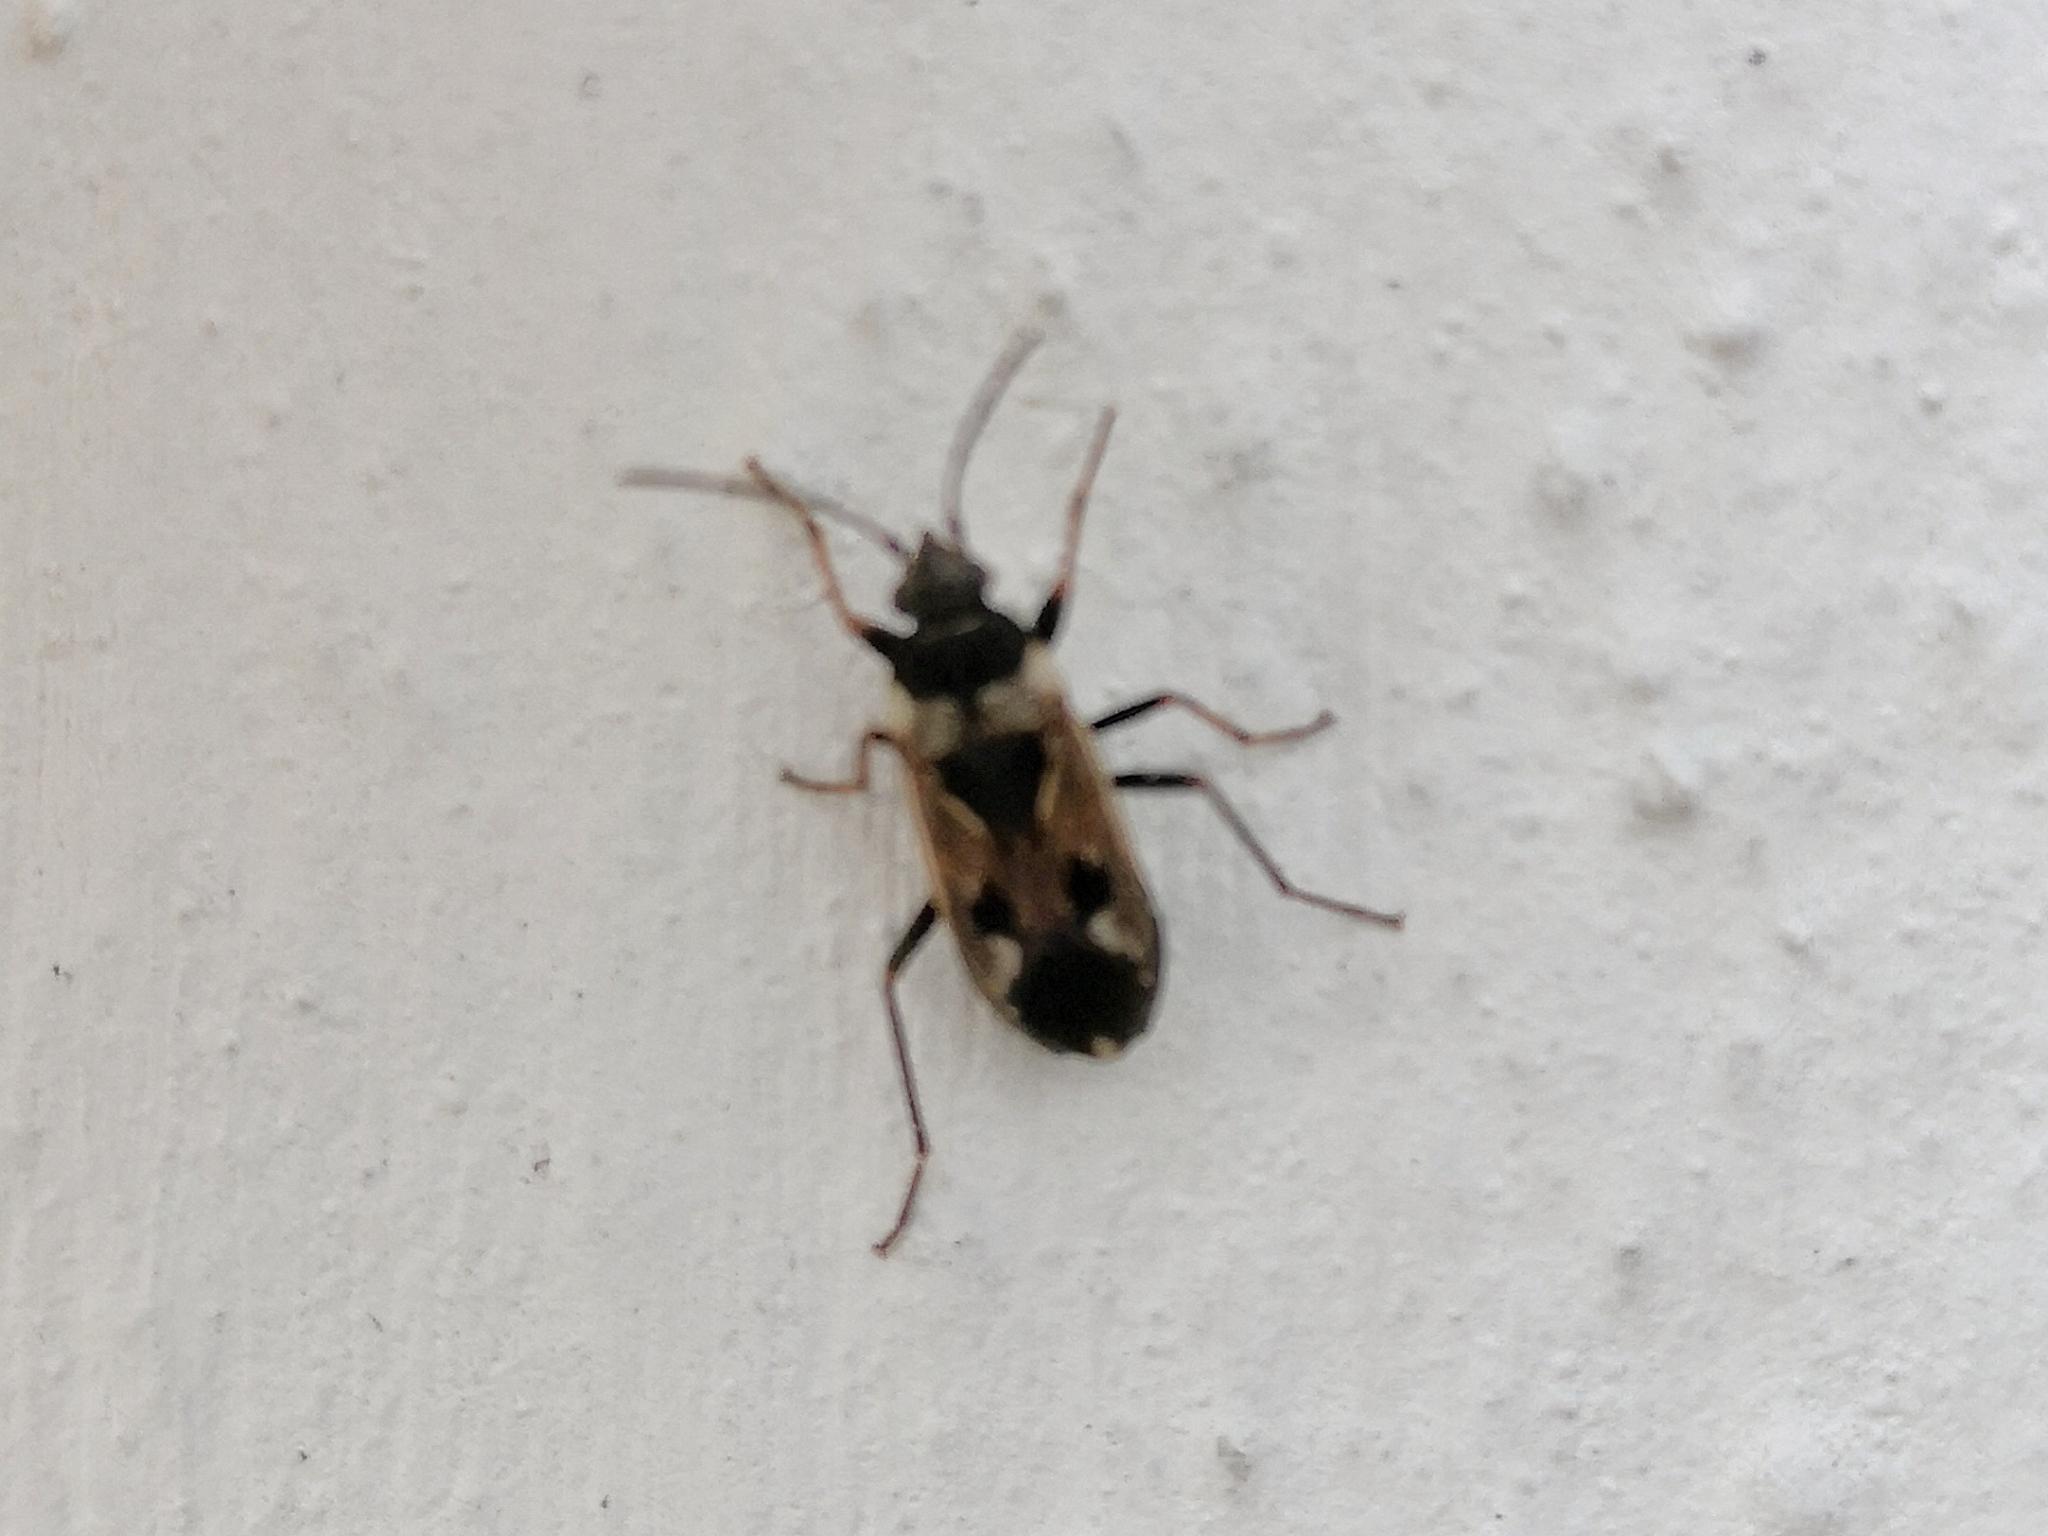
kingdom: Animalia
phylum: Arthropoda
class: Insecta
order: Hemiptera
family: Rhyparochromidae
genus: Rhyparochromus
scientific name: Rhyparochromus vulgaris
